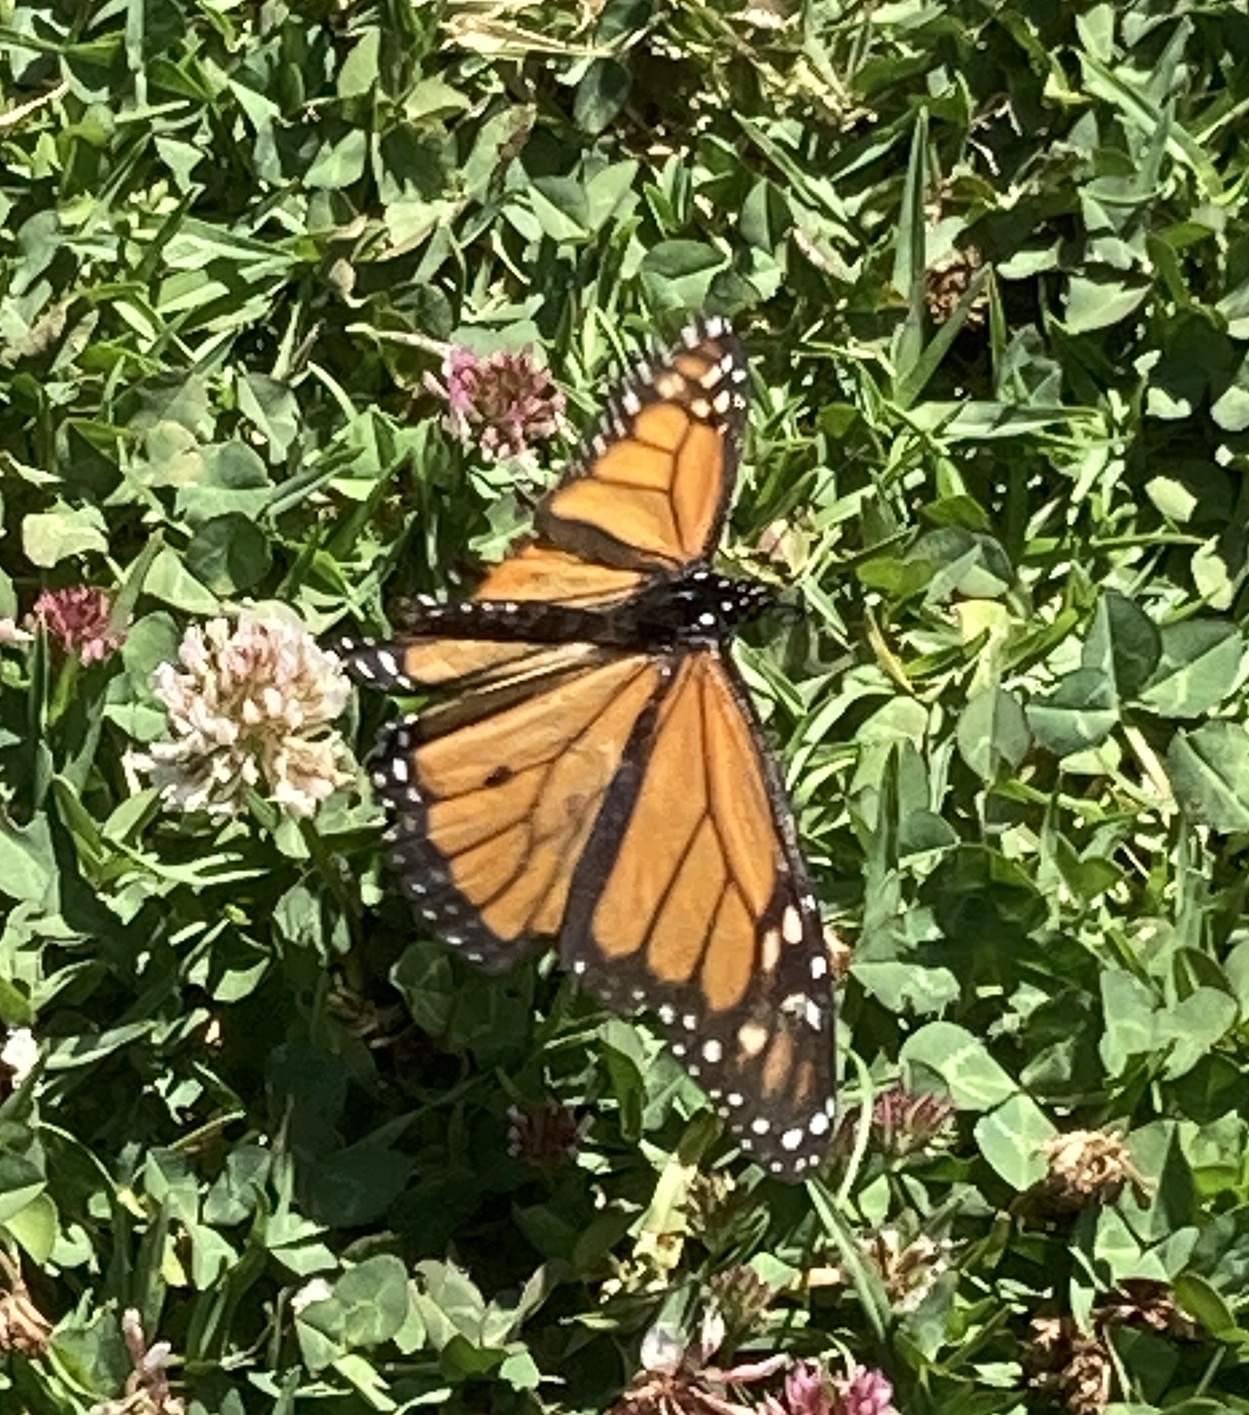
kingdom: Animalia
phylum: Arthropoda
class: Insecta
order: Lepidoptera
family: Nymphalidae
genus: Danaus
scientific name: Danaus plexippus
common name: Monarch
